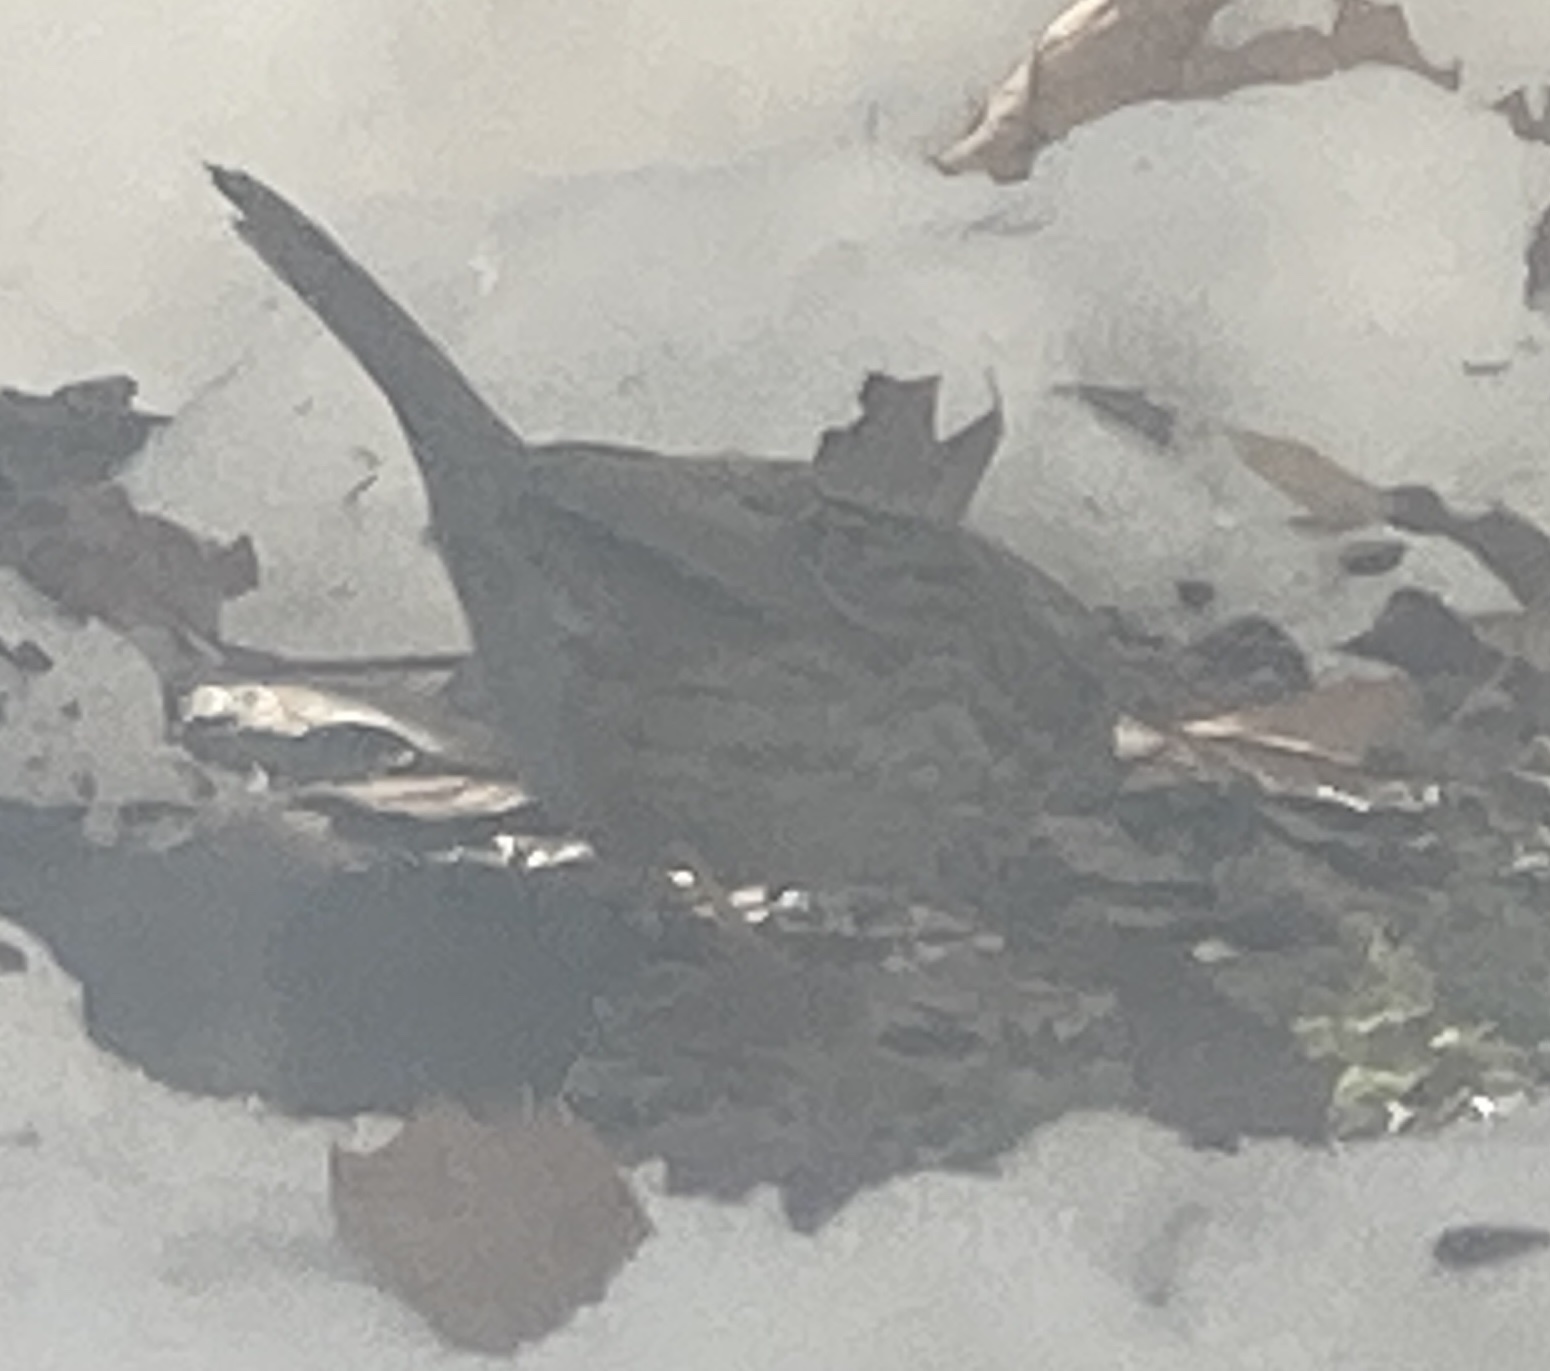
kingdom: Animalia
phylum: Chordata
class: Aves
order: Passeriformes
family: Passerellidae
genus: Melospiza
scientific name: Melospiza melodia
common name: Song sparrow
